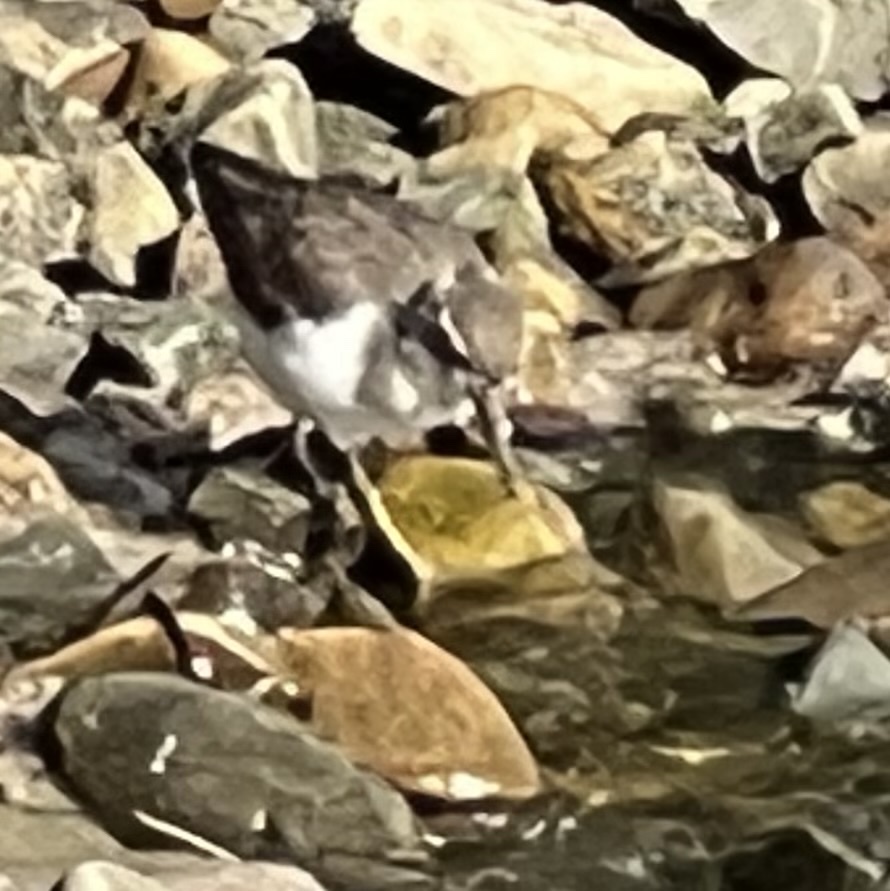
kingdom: Animalia
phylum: Chordata
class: Aves
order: Charadriiformes
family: Scolopacidae
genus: Actitis
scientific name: Actitis macularius
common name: Spotted sandpiper
